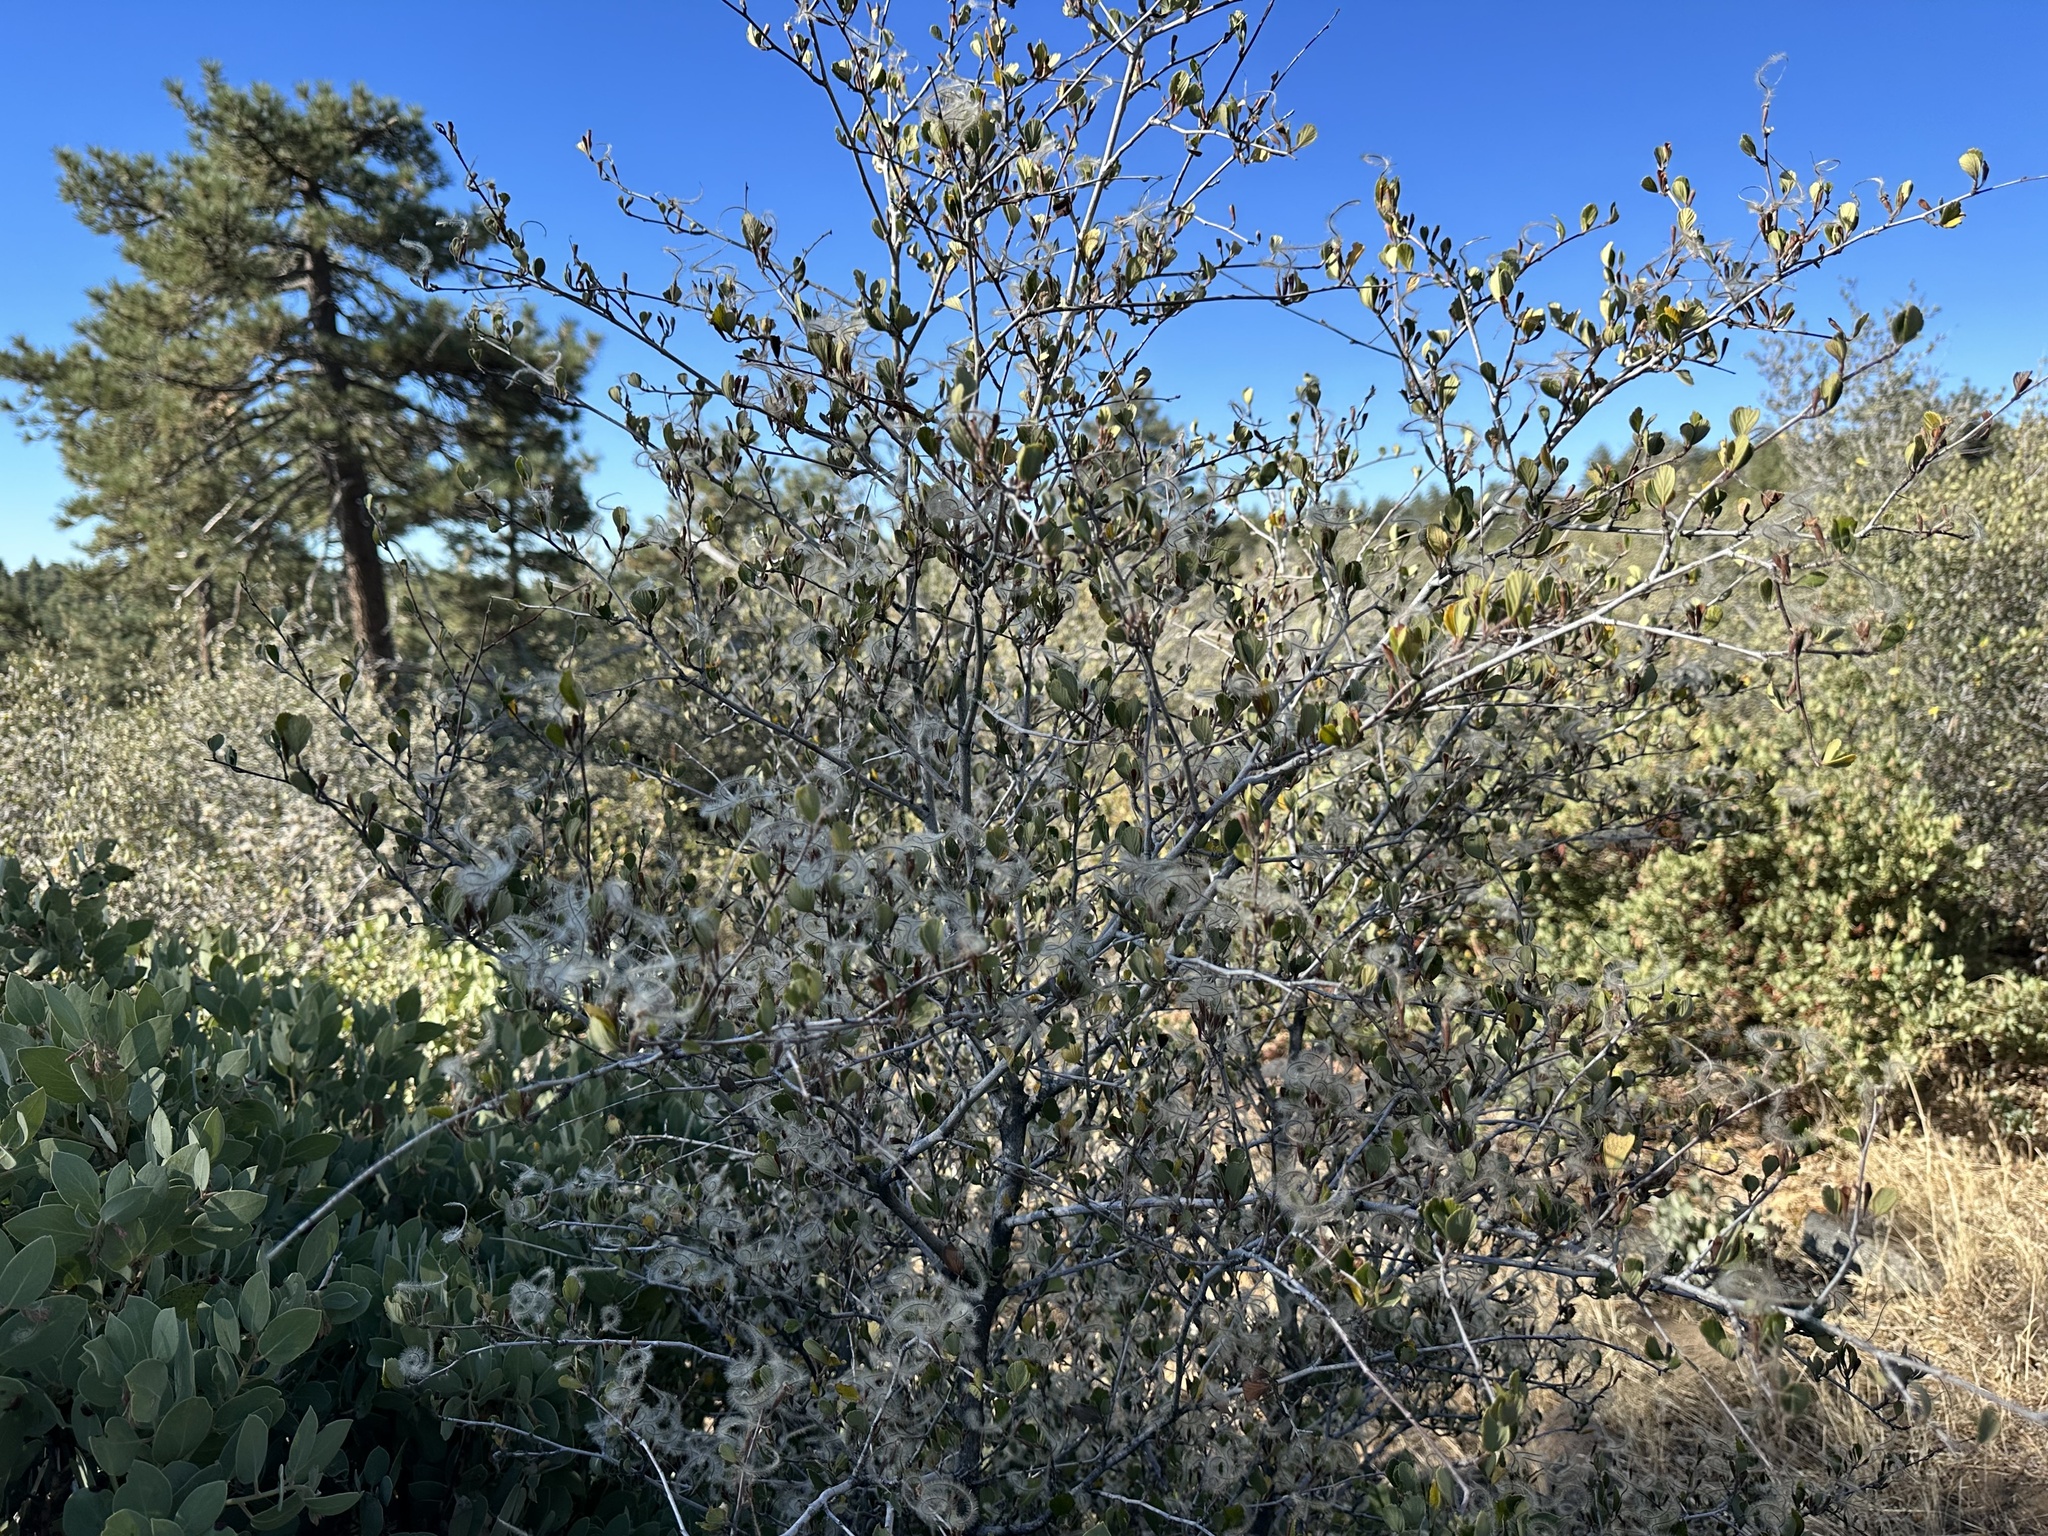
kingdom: Plantae
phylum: Tracheophyta
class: Magnoliopsida
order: Rosales
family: Rosaceae
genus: Cercocarpus
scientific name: Cercocarpus betuloides
